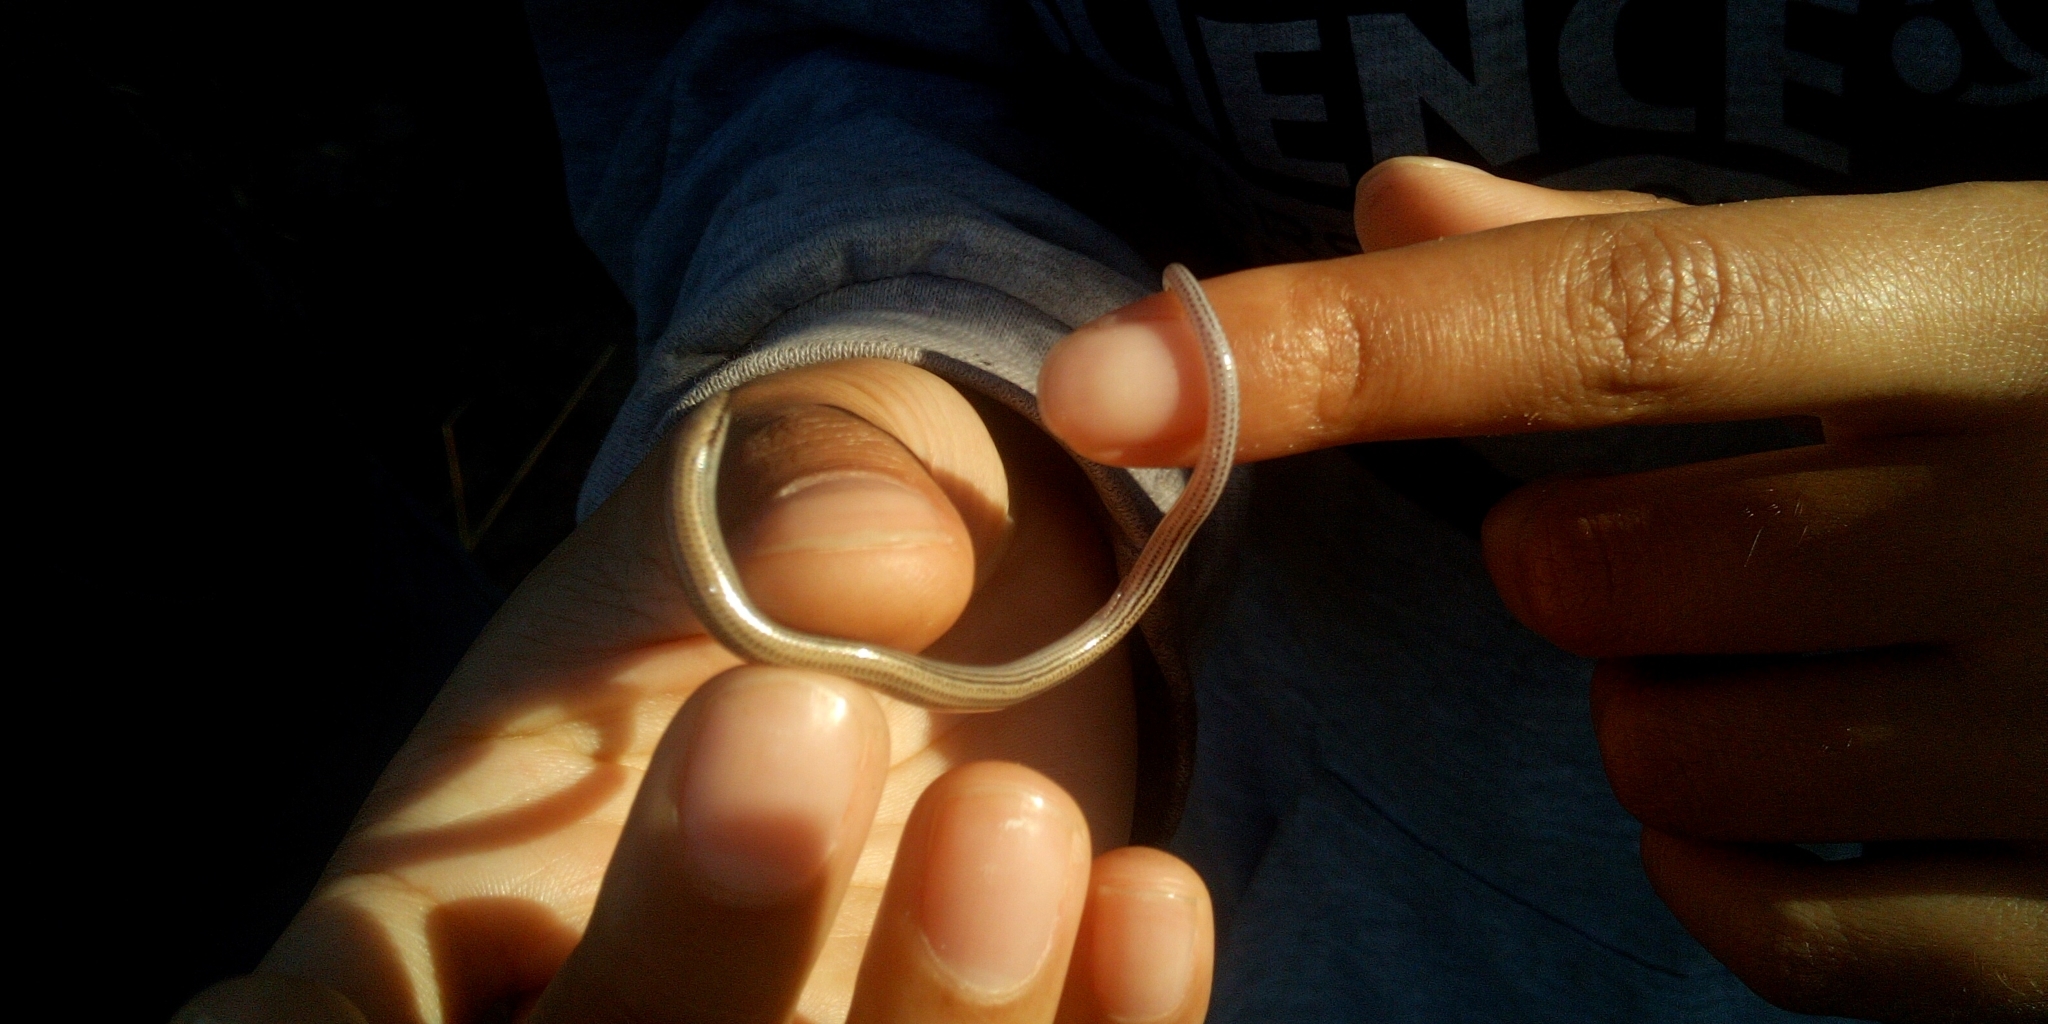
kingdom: Animalia
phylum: Chordata
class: Squamata
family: Scincidae
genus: Scelotes
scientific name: Scelotes bipes
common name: Common burrowing skink
